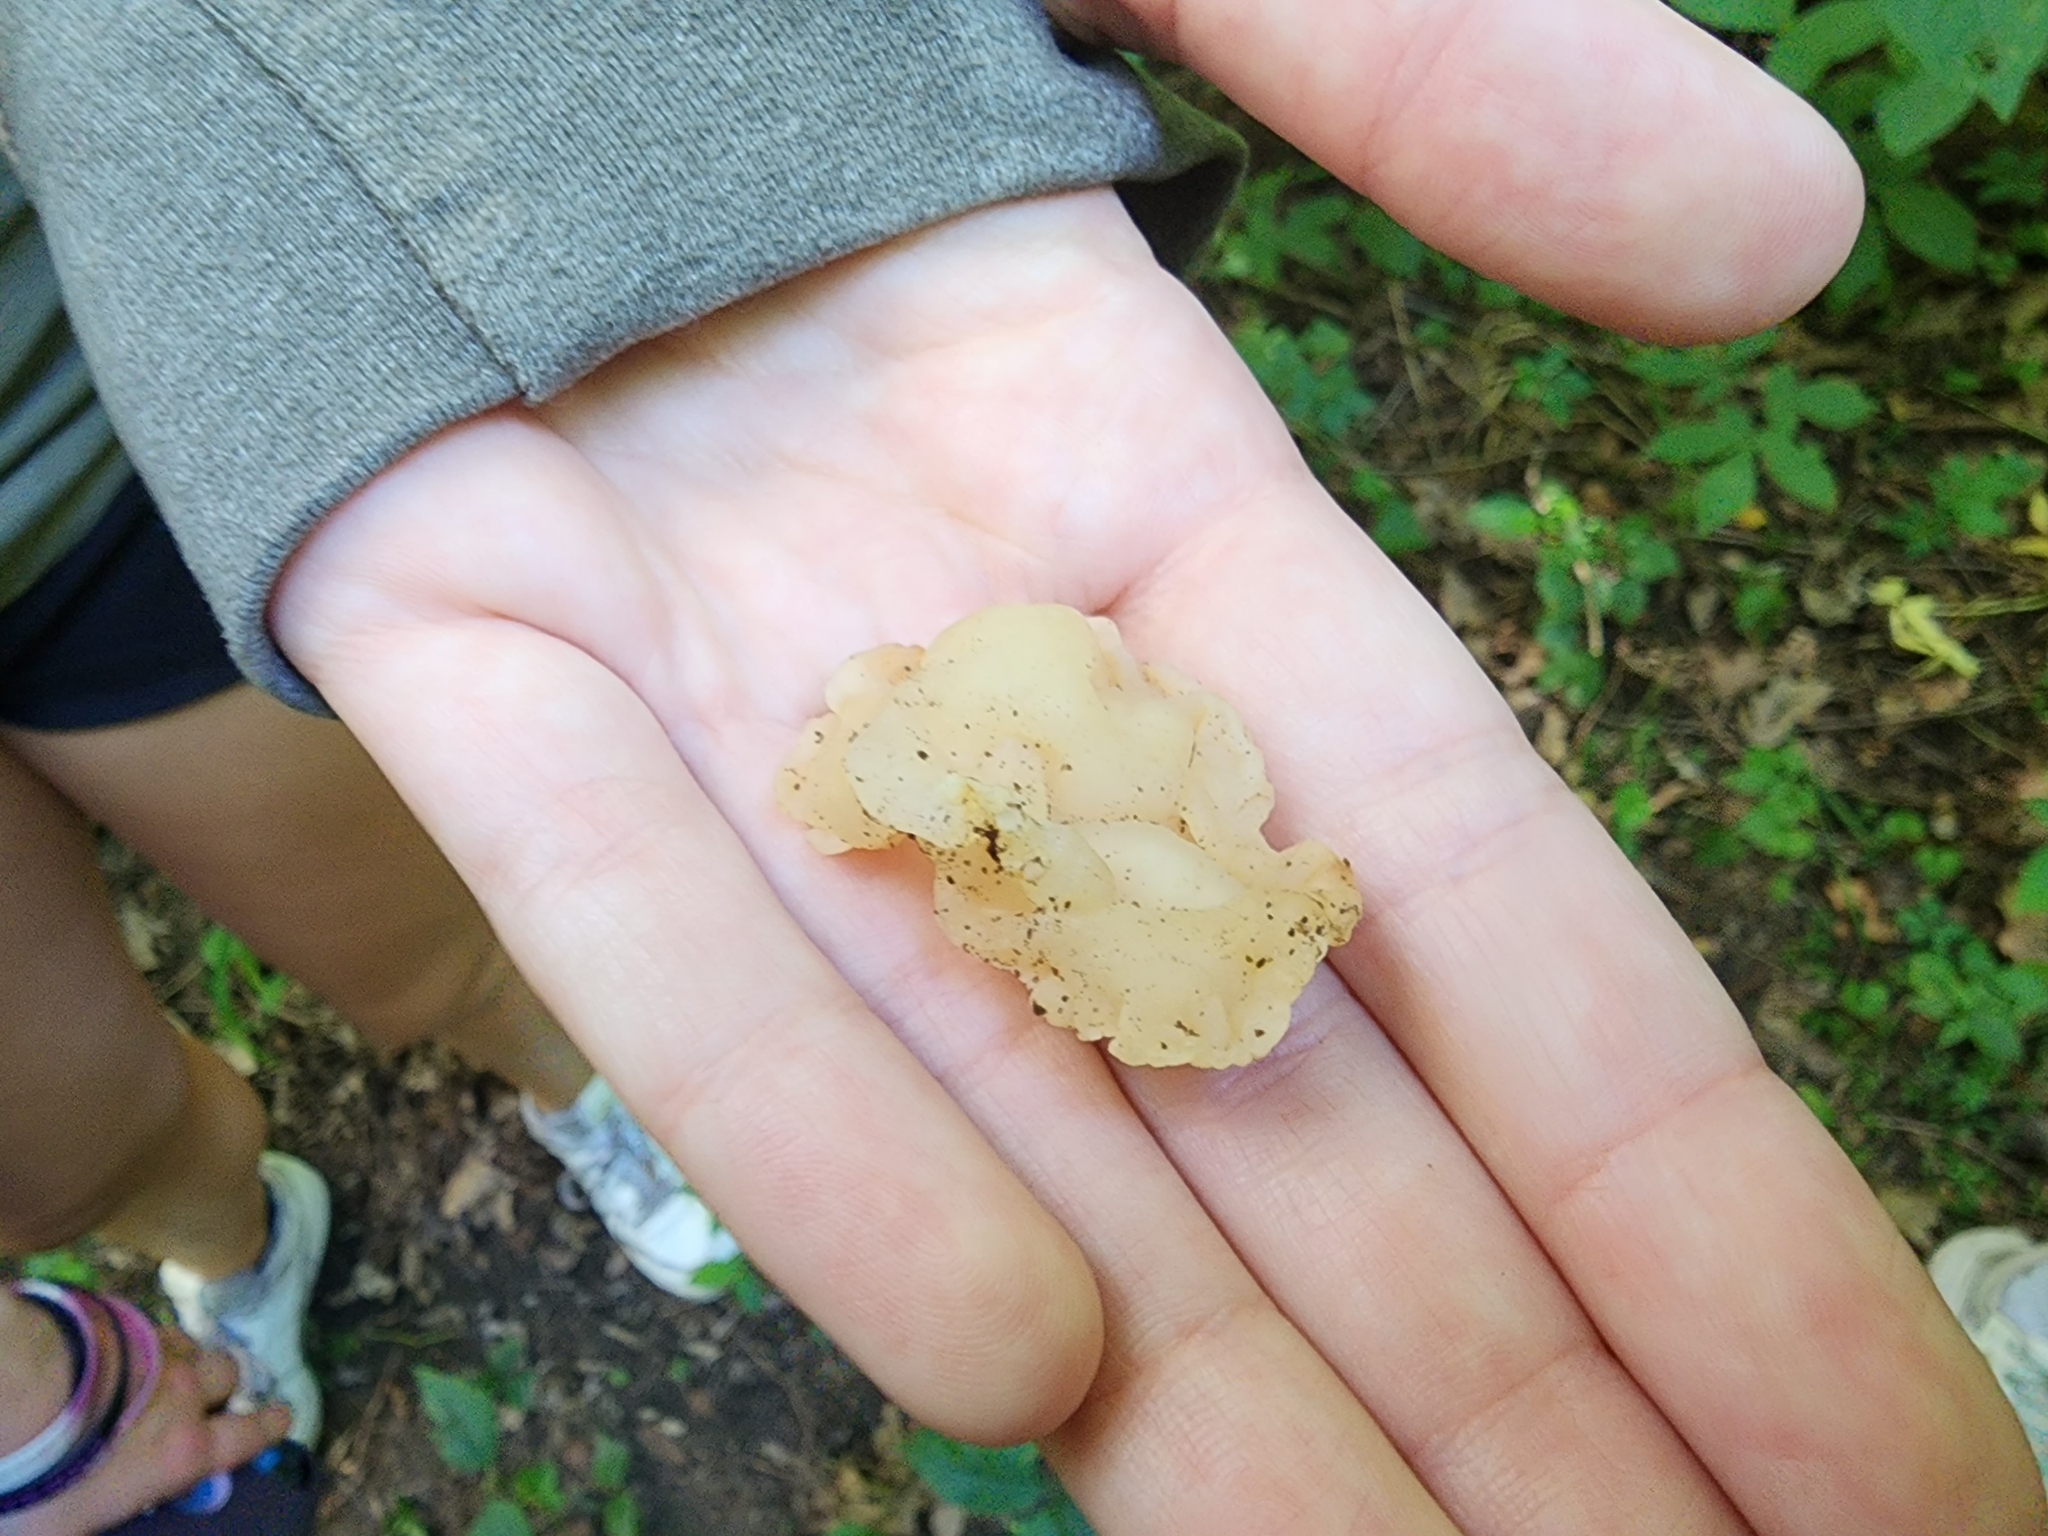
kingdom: Fungi
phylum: Basidiomycota
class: Agaricomycetes
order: Auriculariales
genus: Ductifera
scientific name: Ductifera pululahuana
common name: White jelly fungus
